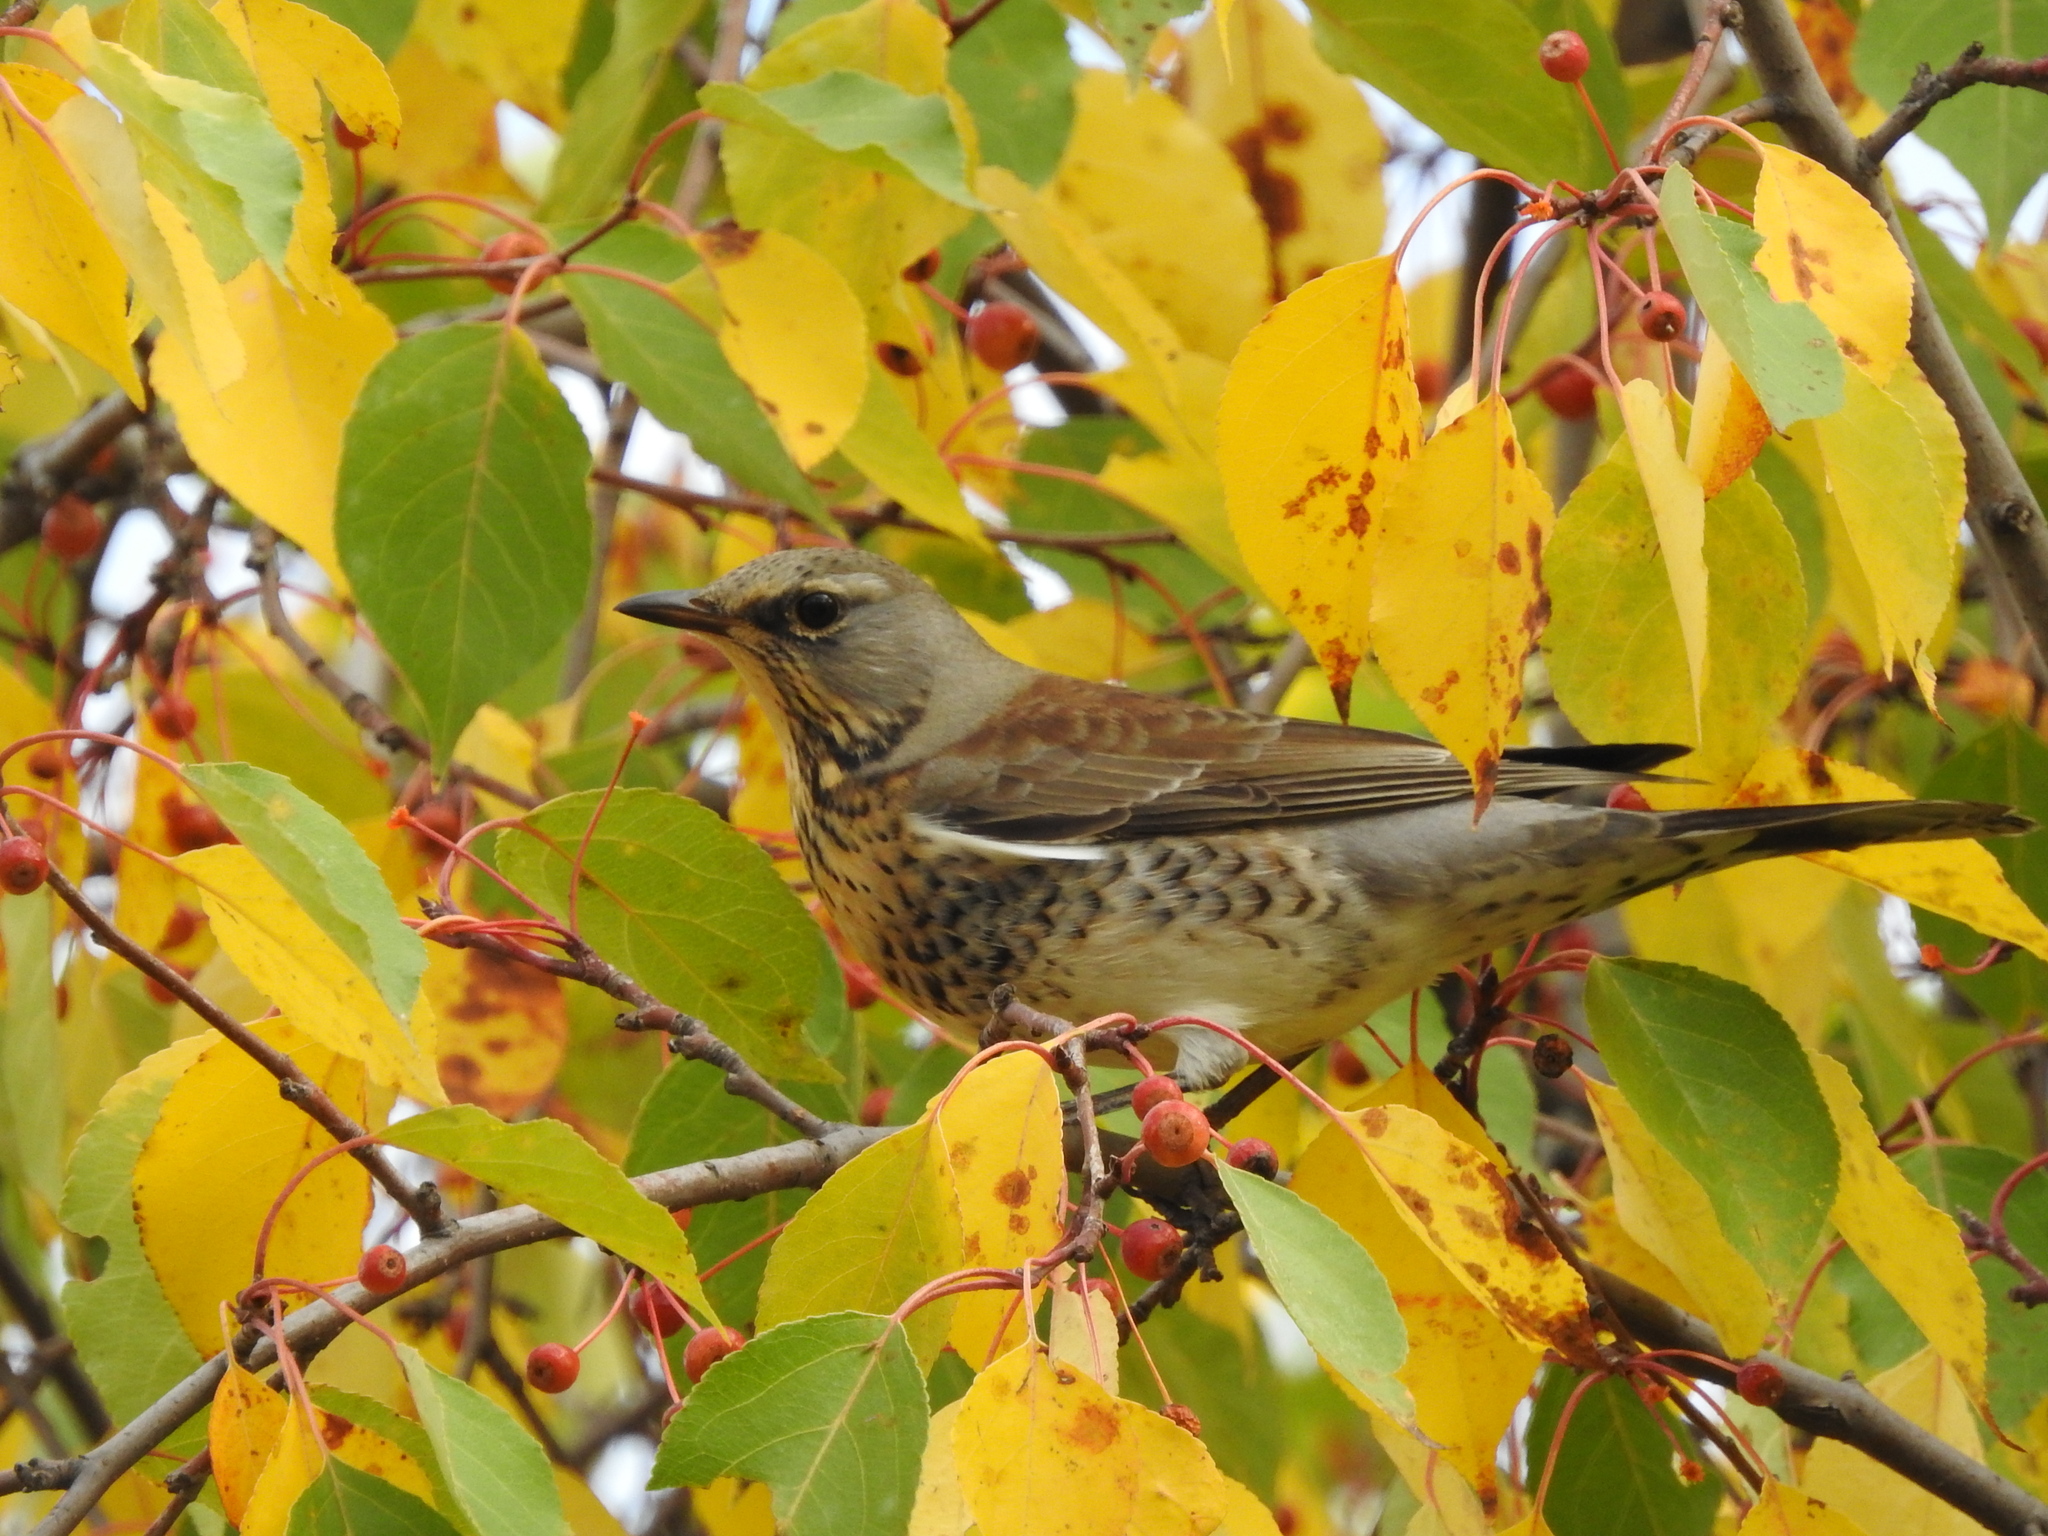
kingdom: Animalia
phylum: Chordata
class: Aves
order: Passeriformes
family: Turdidae
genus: Turdus
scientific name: Turdus pilaris
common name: Fieldfare
